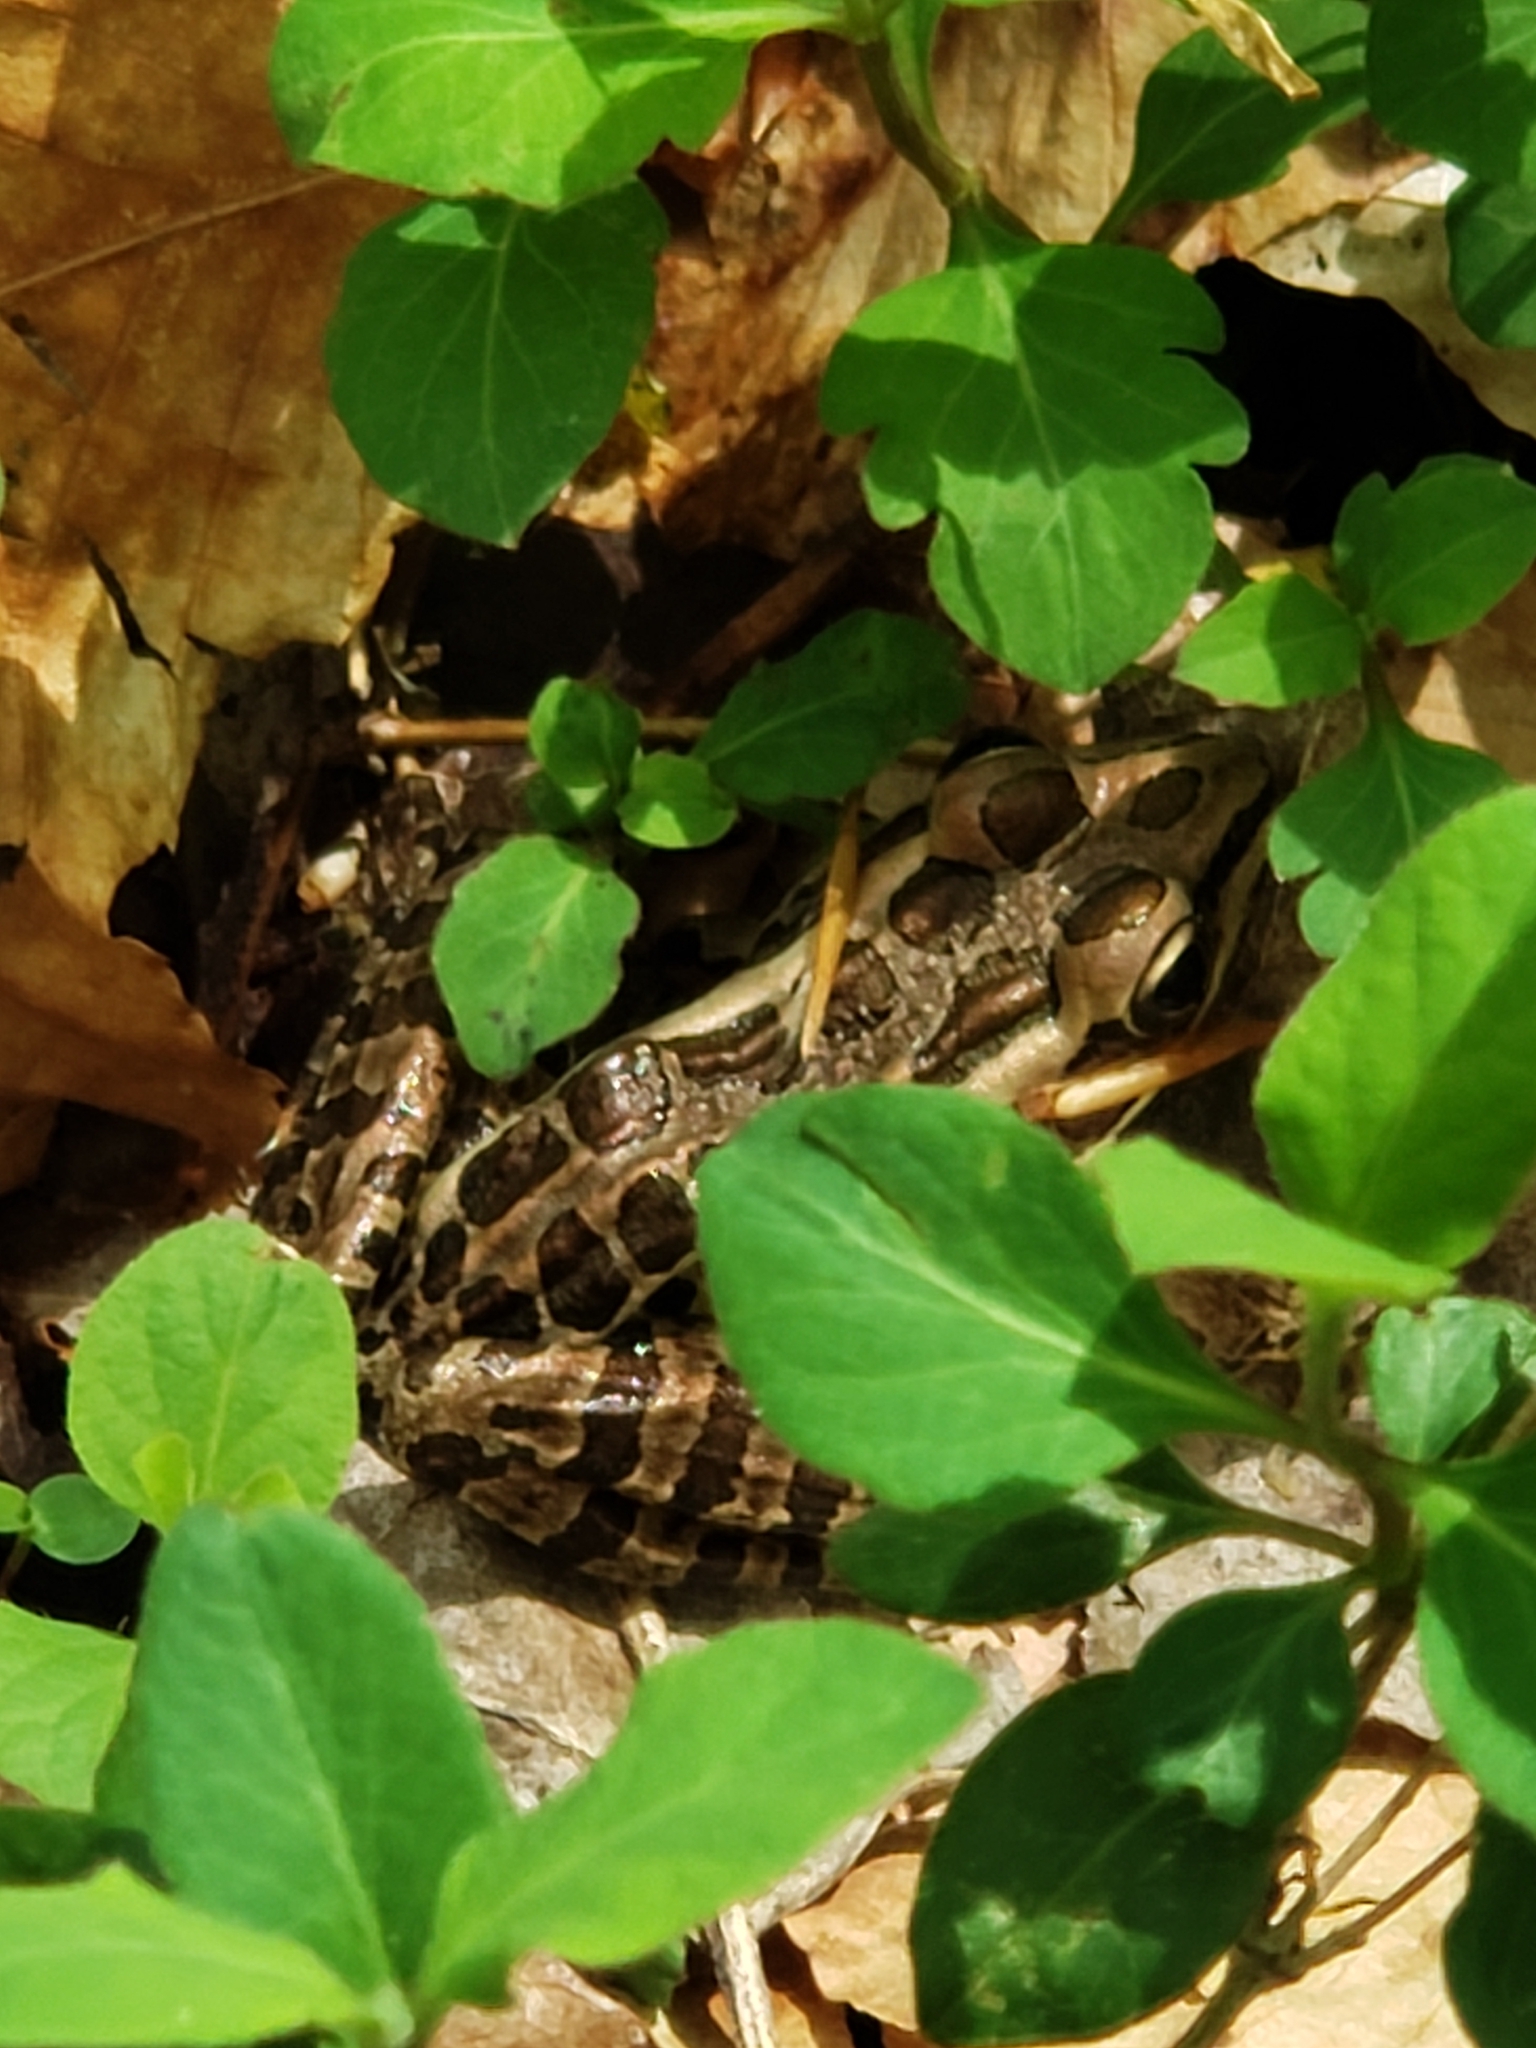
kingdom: Animalia
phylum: Chordata
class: Amphibia
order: Anura
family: Ranidae
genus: Lithobates
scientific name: Lithobates palustris
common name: Pickerel frog
